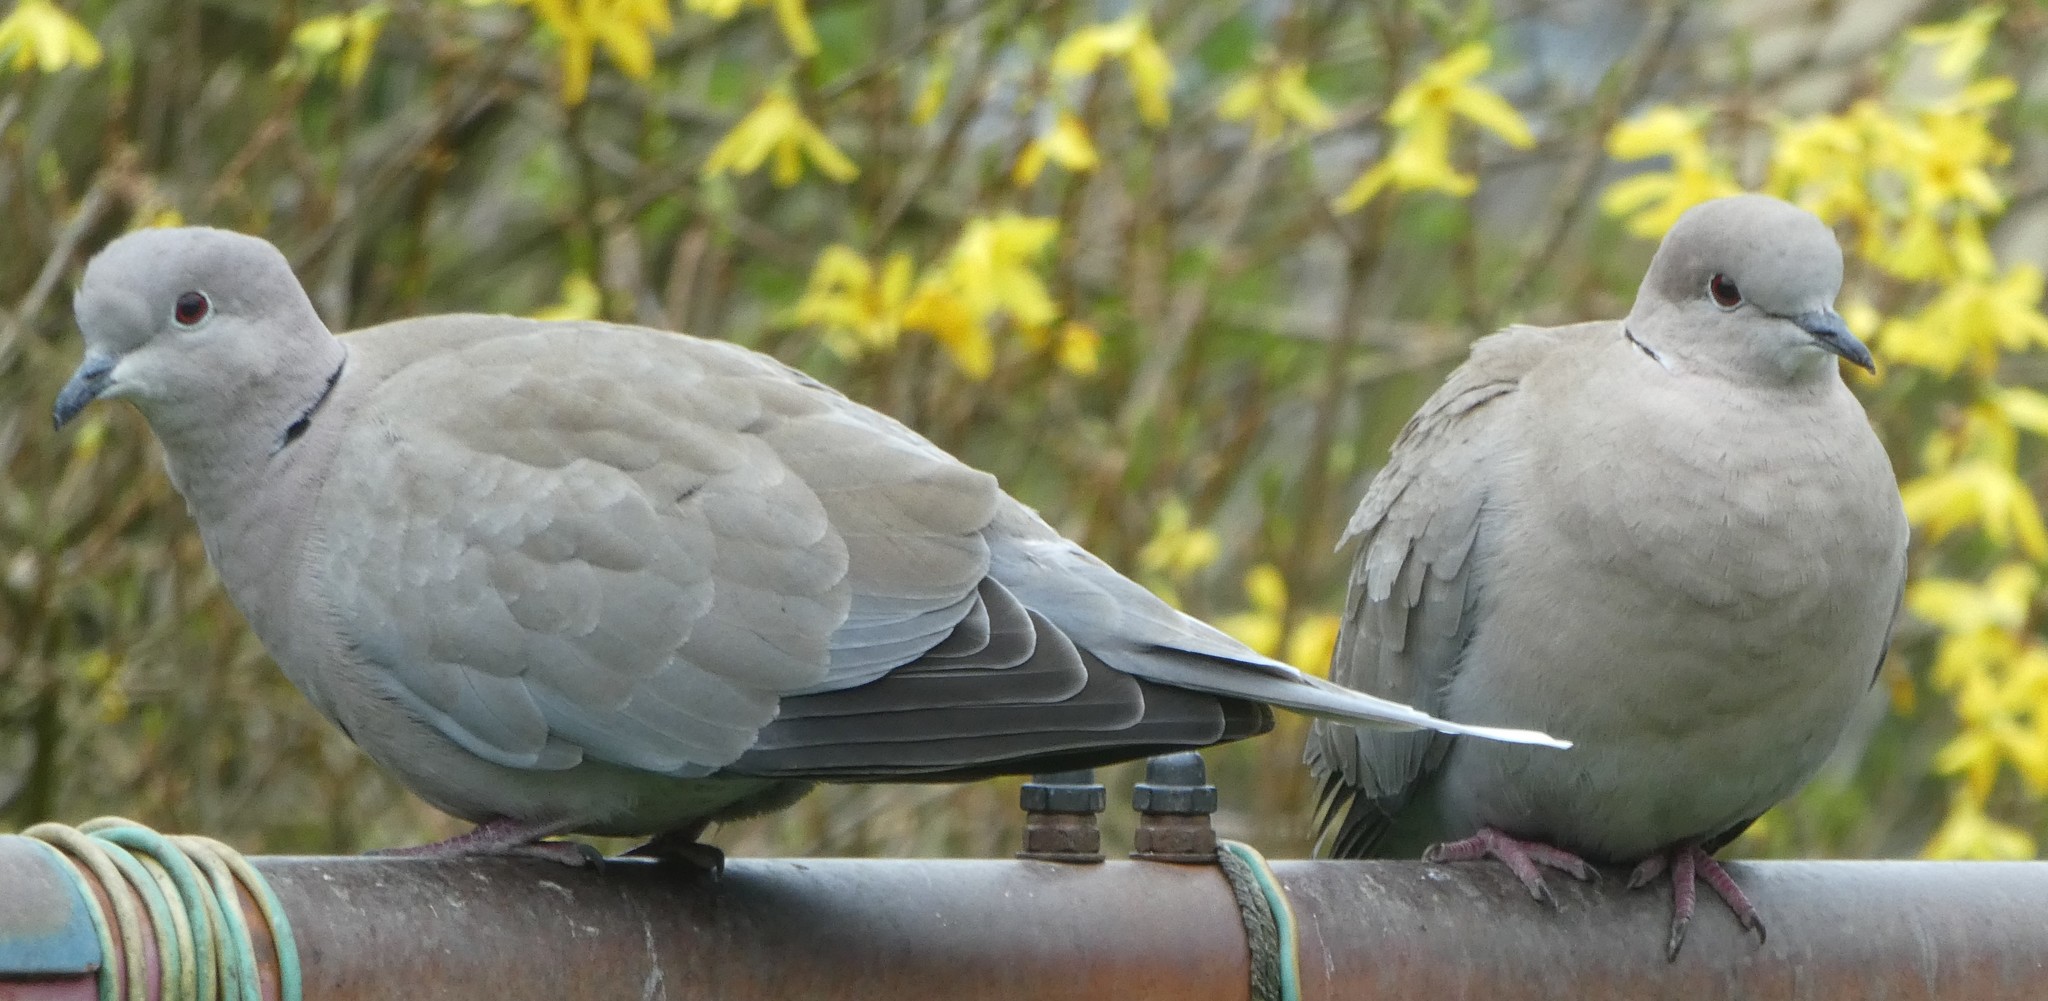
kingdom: Animalia
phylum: Chordata
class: Aves
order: Columbiformes
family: Columbidae
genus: Streptopelia
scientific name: Streptopelia decaocto
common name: Eurasian collared dove
